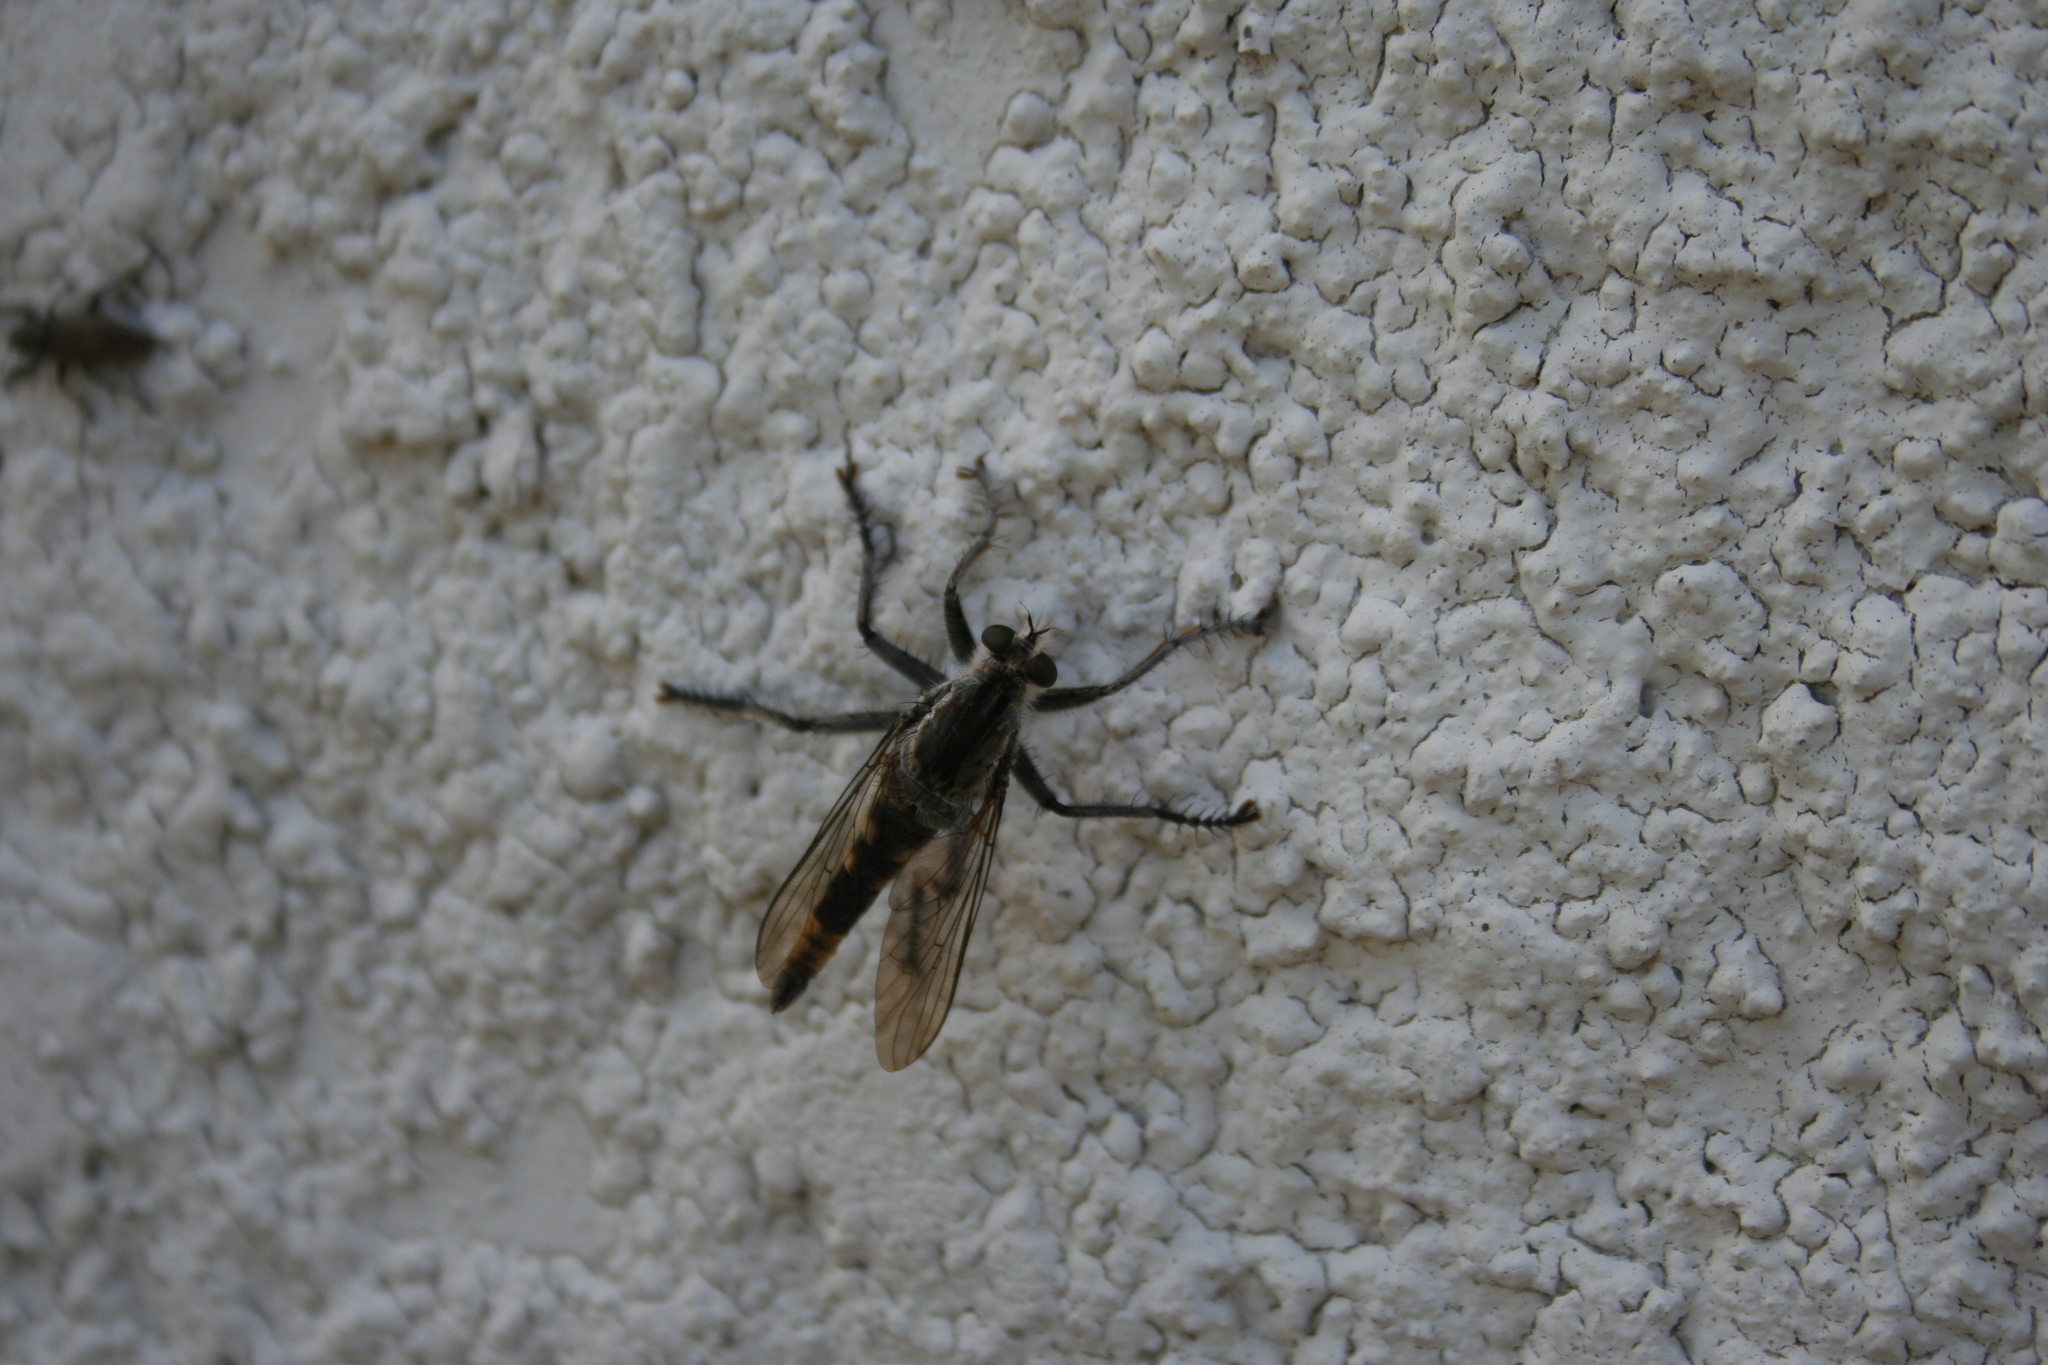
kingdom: Animalia
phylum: Arthropoda
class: Insecta
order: Diptera
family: Asilidae
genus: Triorla
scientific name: Triorla interrupta
